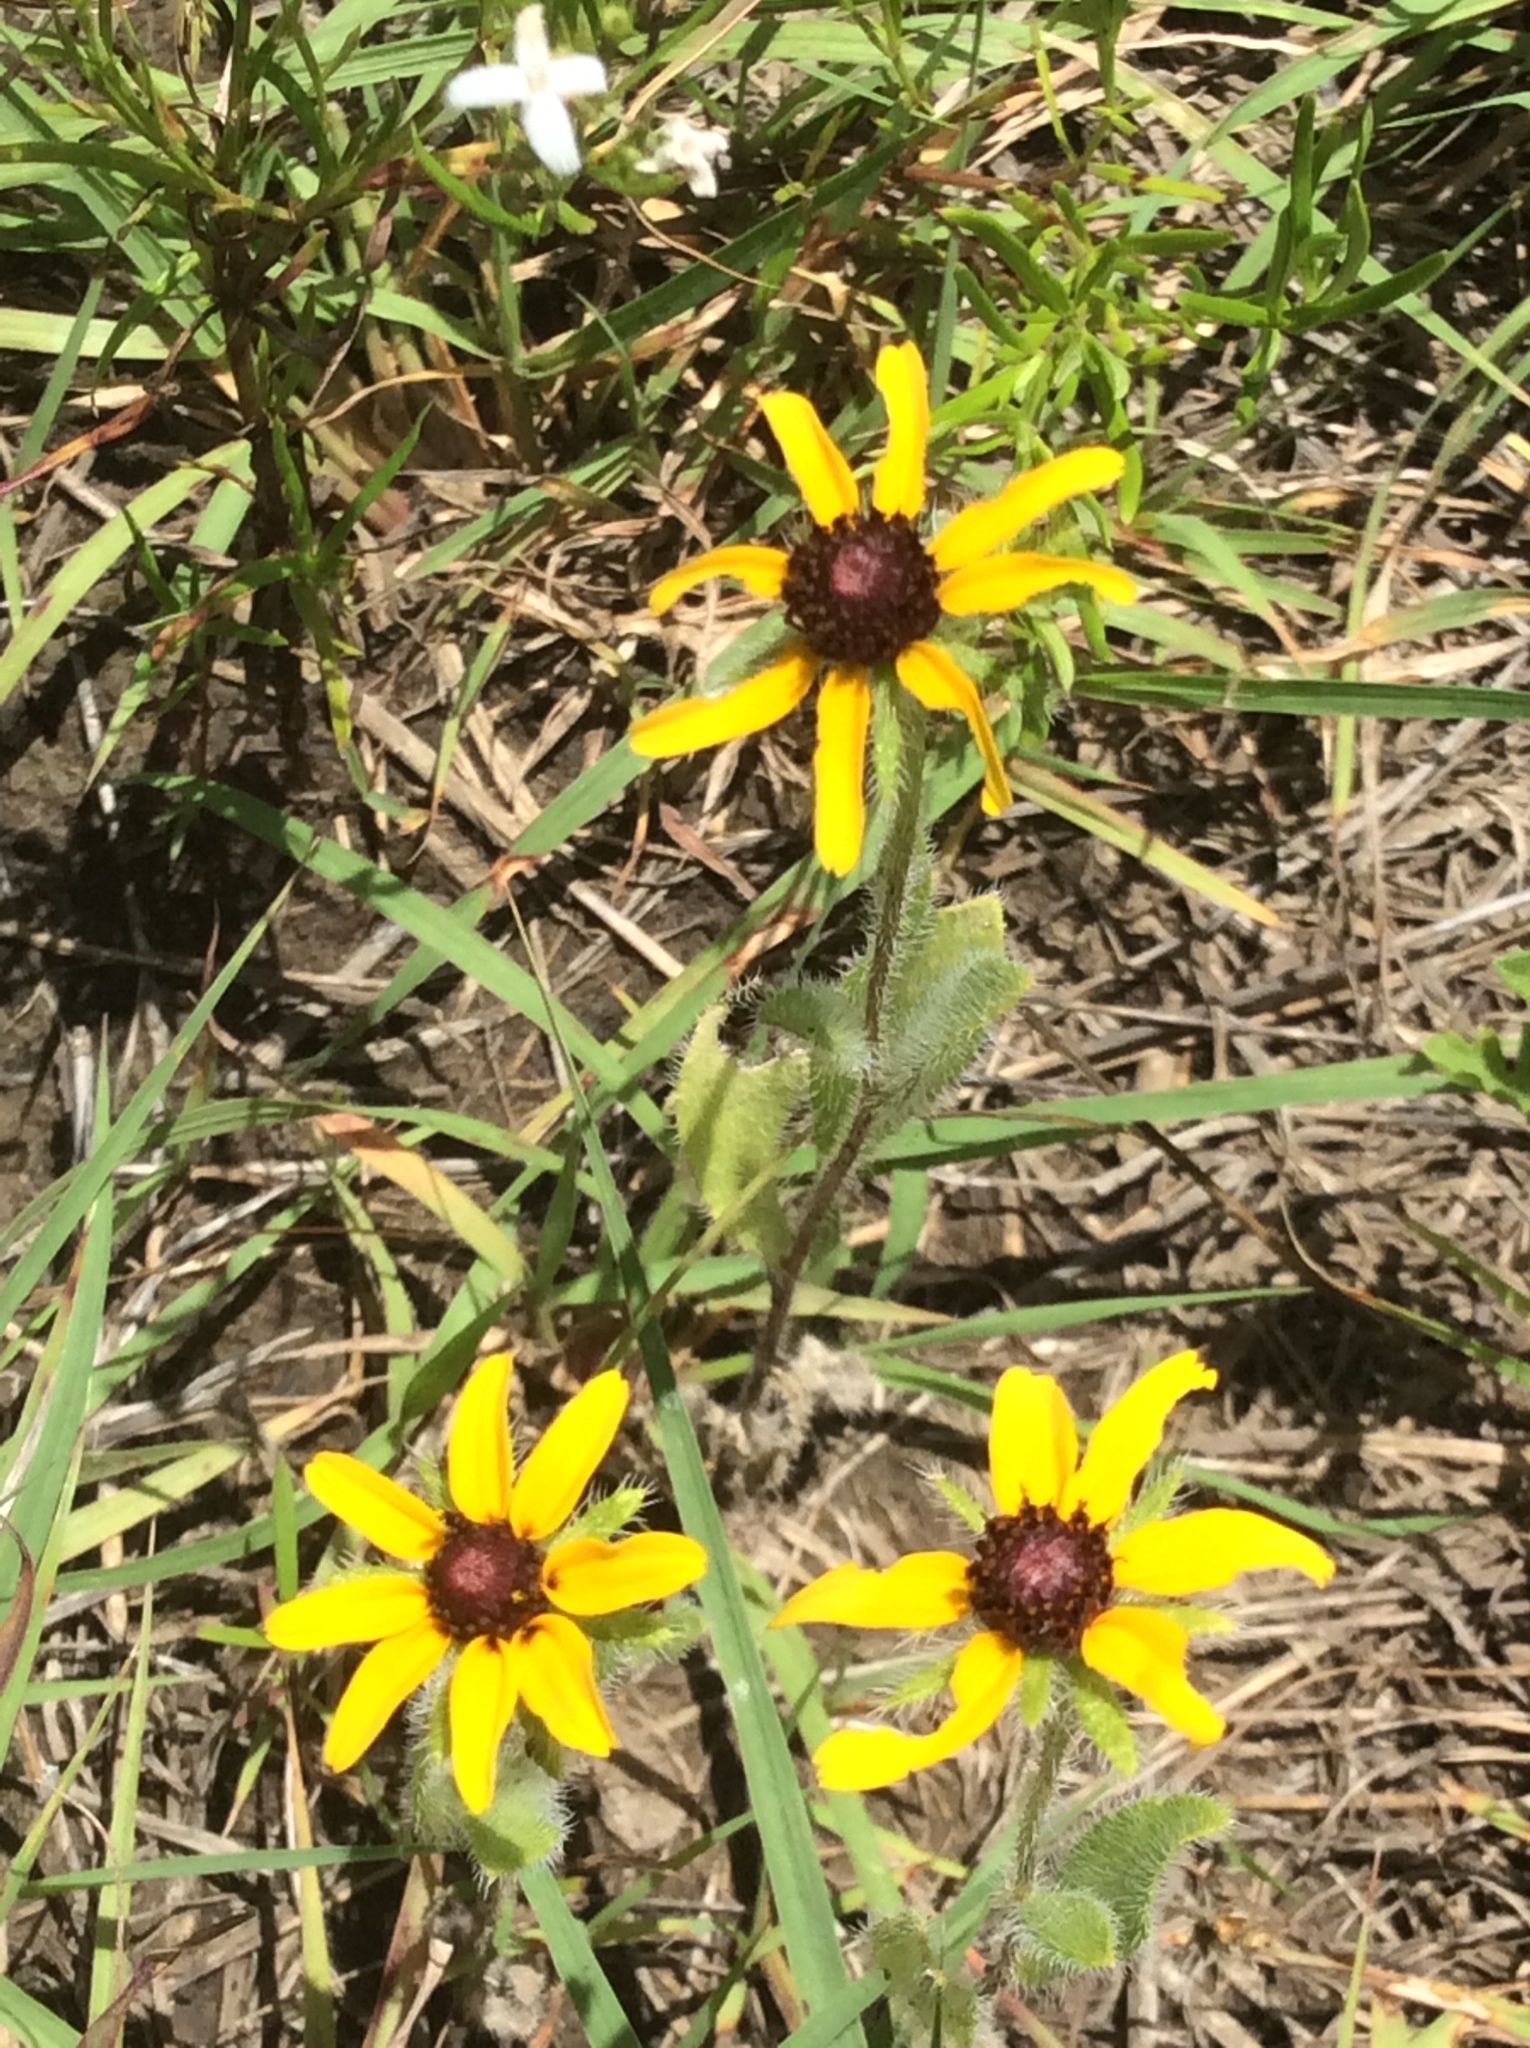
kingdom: Plantae
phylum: Tracheophyta
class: Magnoliopsida
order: Asterales
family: Asteraceae
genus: Rudbeckia
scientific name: Rudbeckia hirta
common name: Black-eyed-susan
